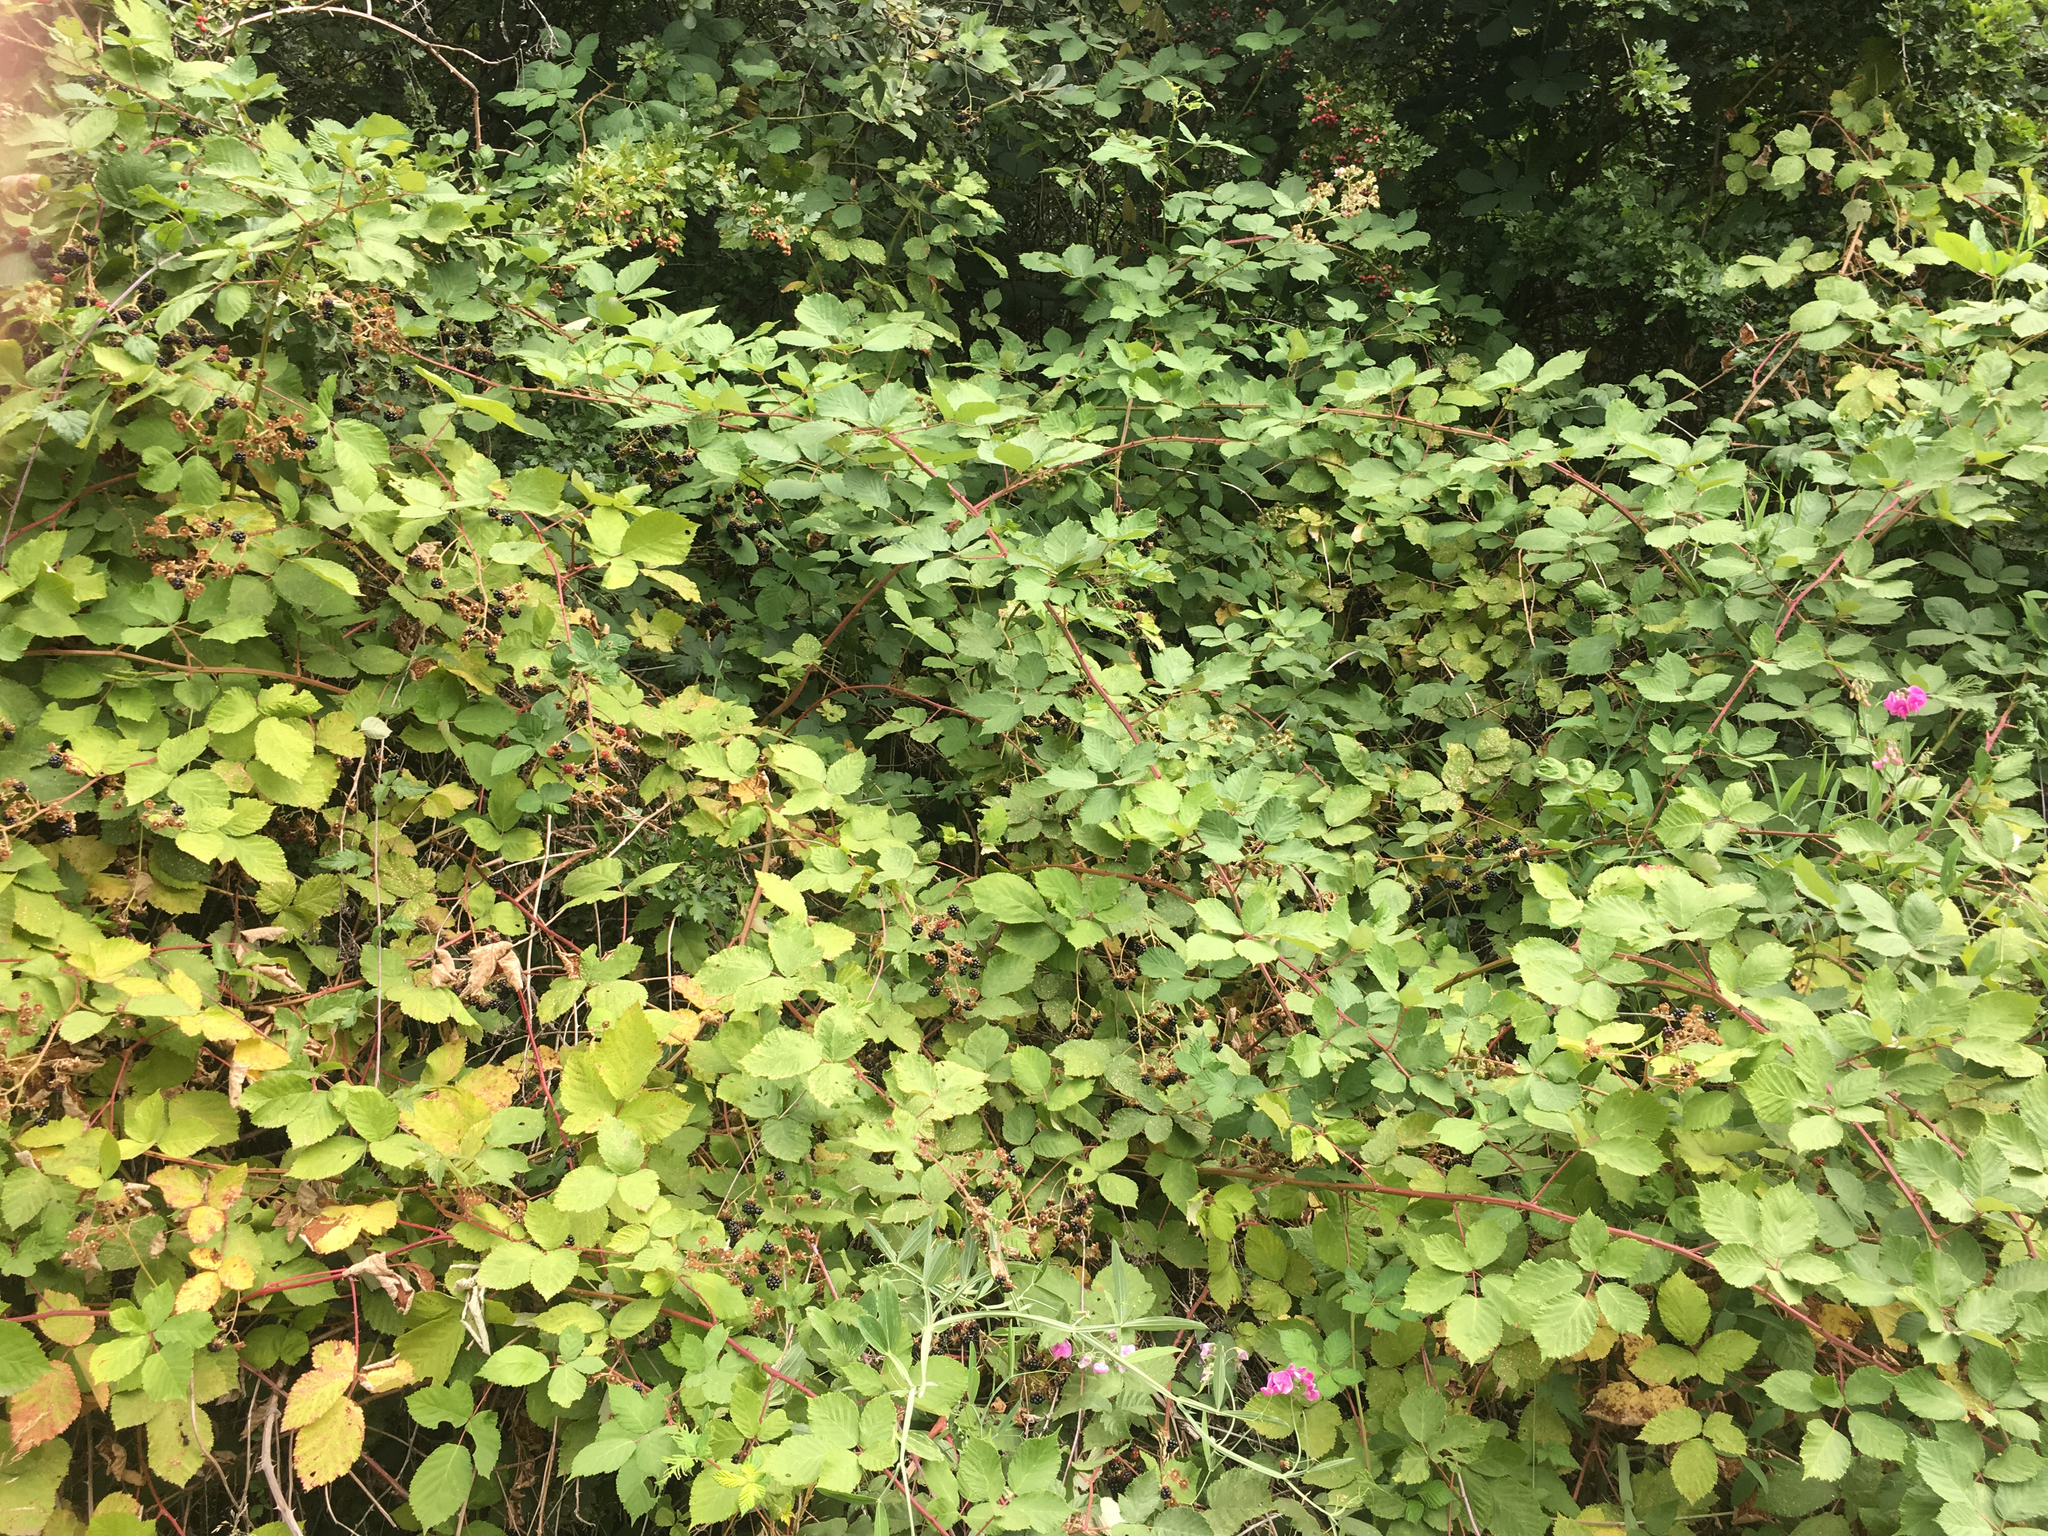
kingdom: Plantae
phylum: Tracheophyta
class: Magnoliopsida
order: Fabales
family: Fabaceae
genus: Lathyrus
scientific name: Lathyrus latifolius
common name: Perennial pea
